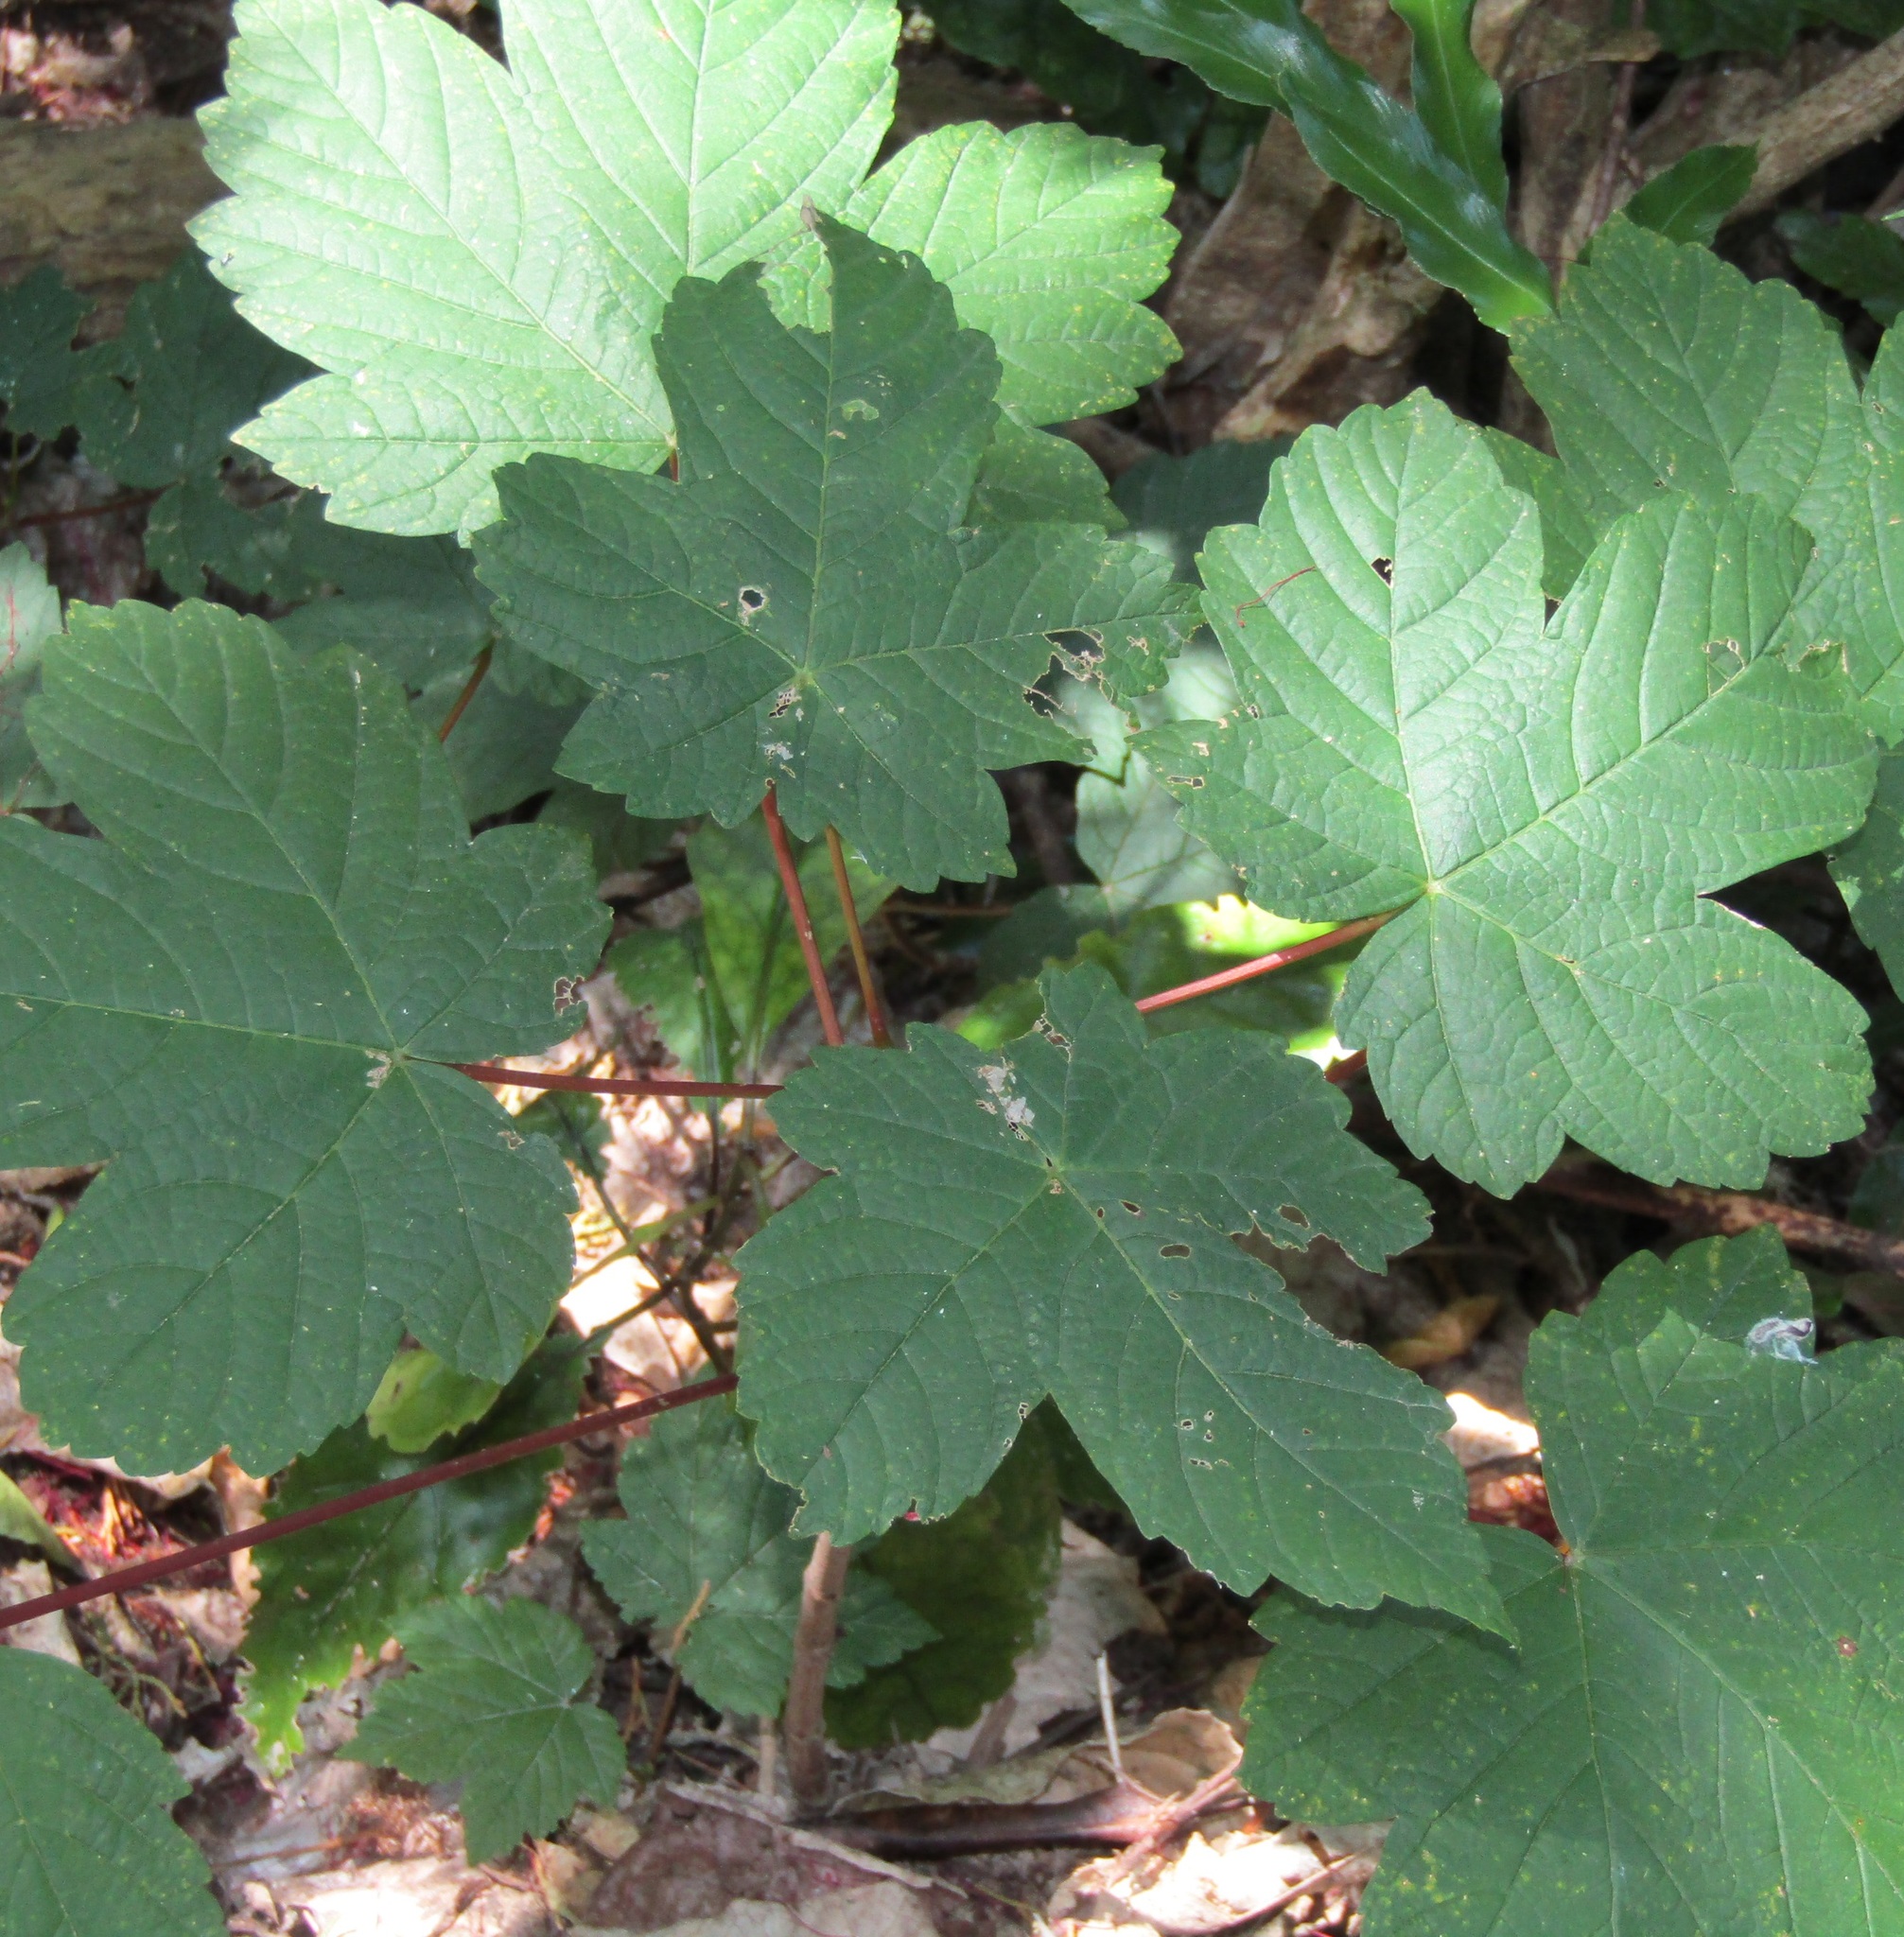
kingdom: Plantae
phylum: Tracheophyta
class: Magnoliopsida
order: Sapindales
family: Sapindaceae
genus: Acer
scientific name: Acer pseudoplatanus
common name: Sycamore
